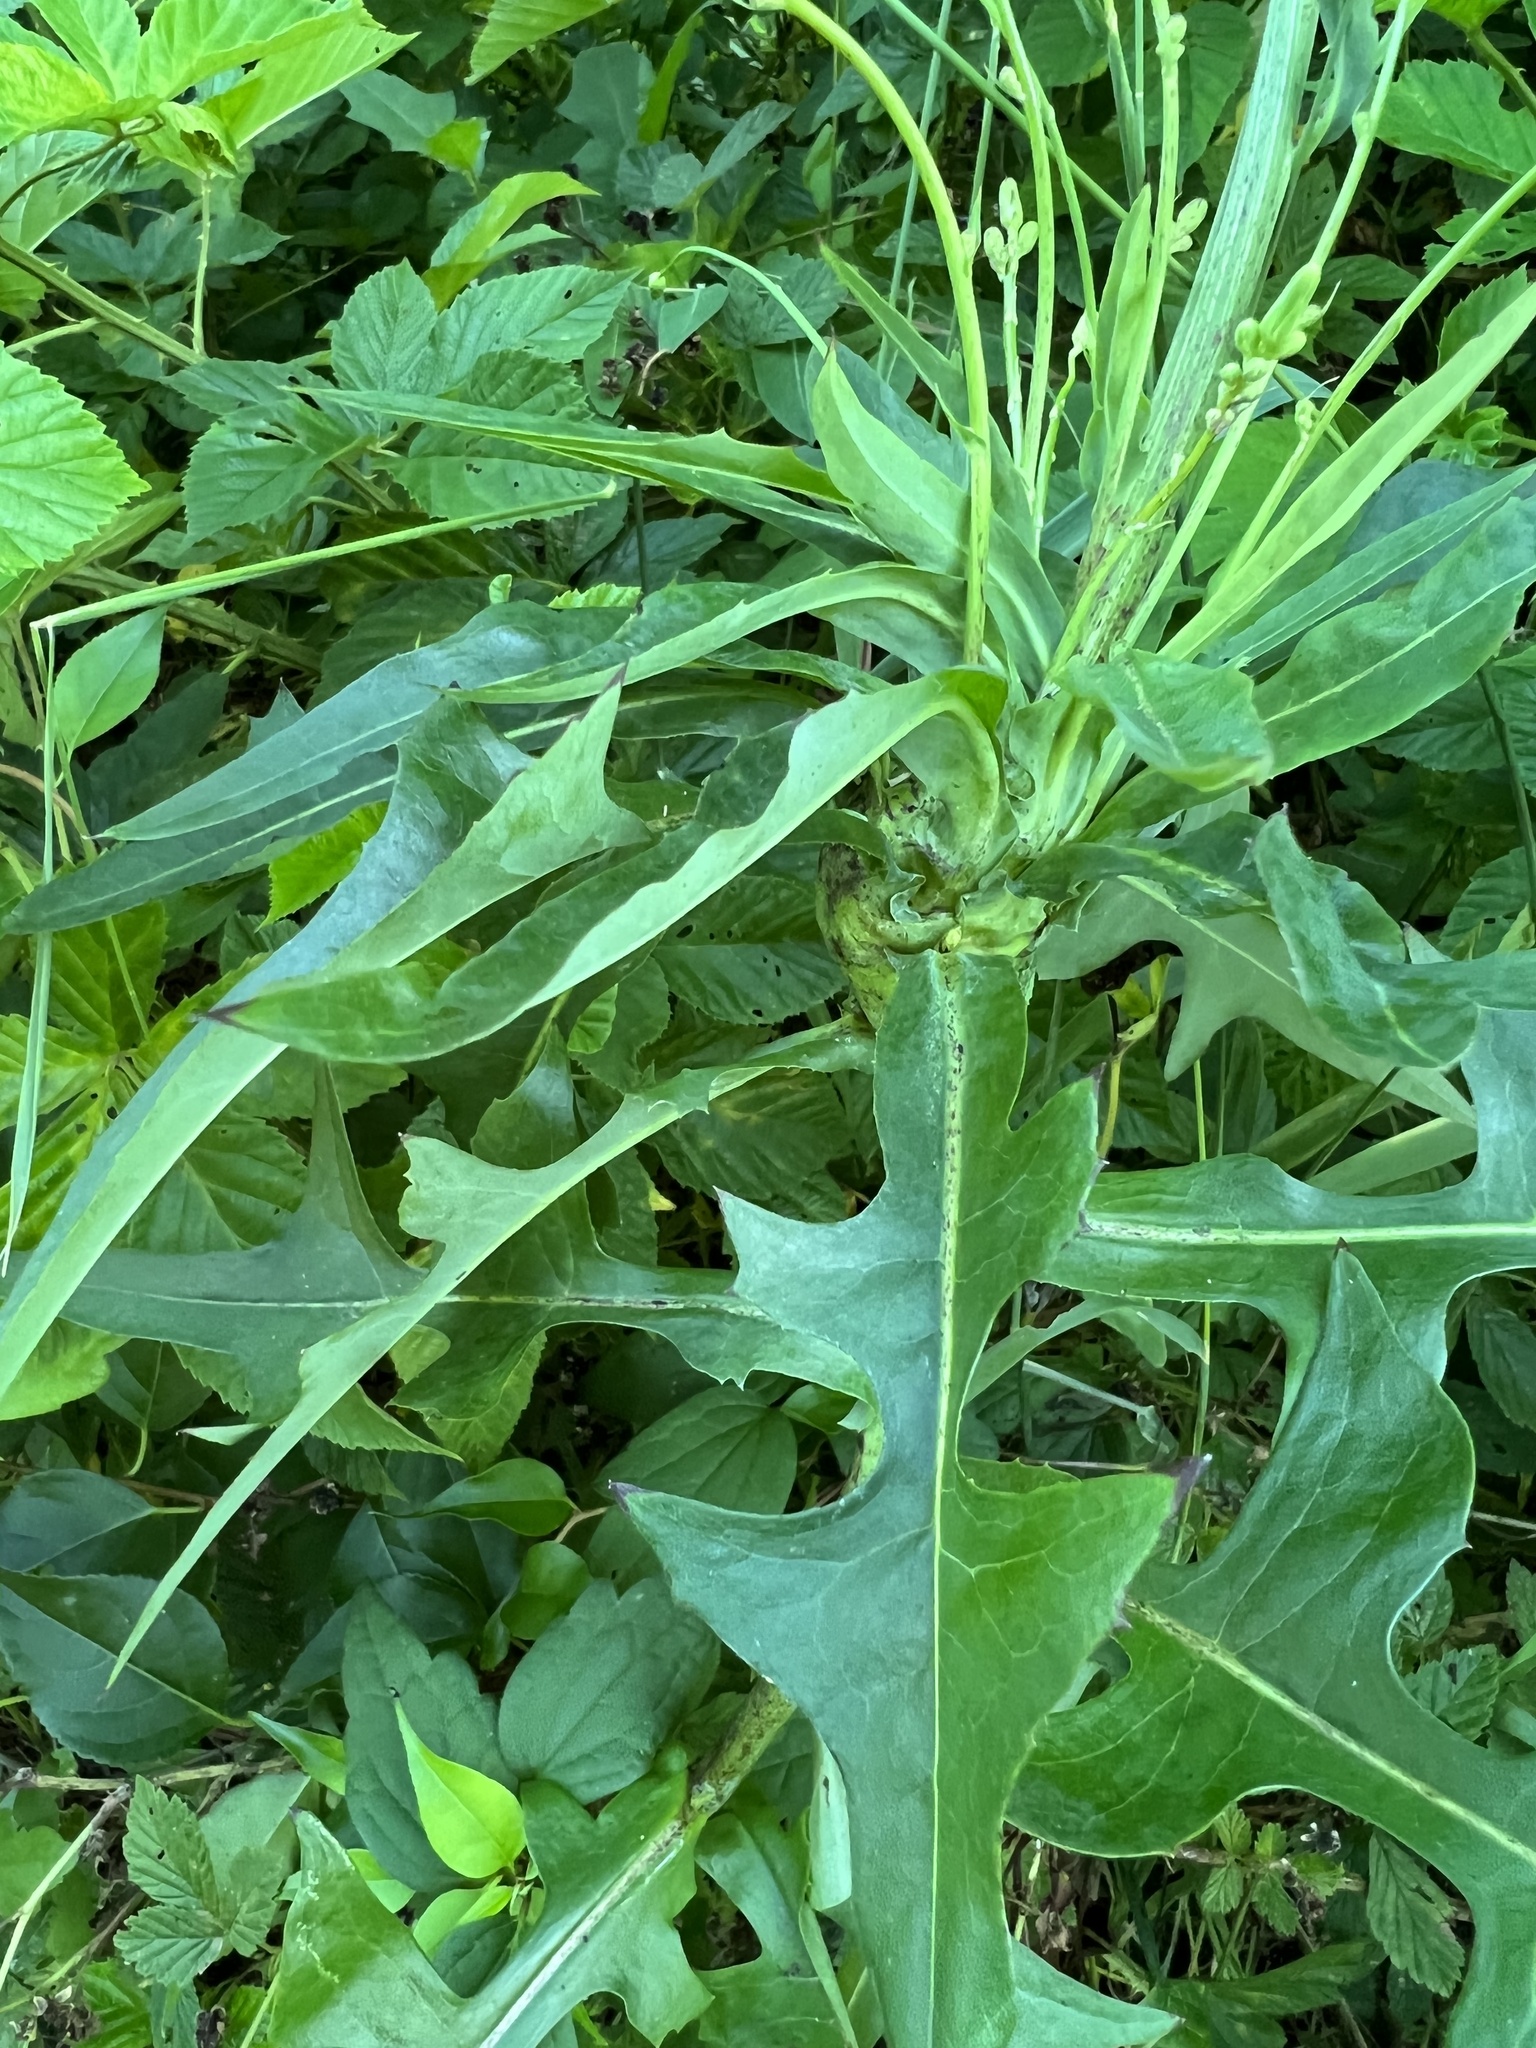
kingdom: Plantae
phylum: Tracheophyta
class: Magnoliopsida
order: Asterales
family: Asteraceae
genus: Lactuca
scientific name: Lactuca canadensis
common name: Canada lettuce
